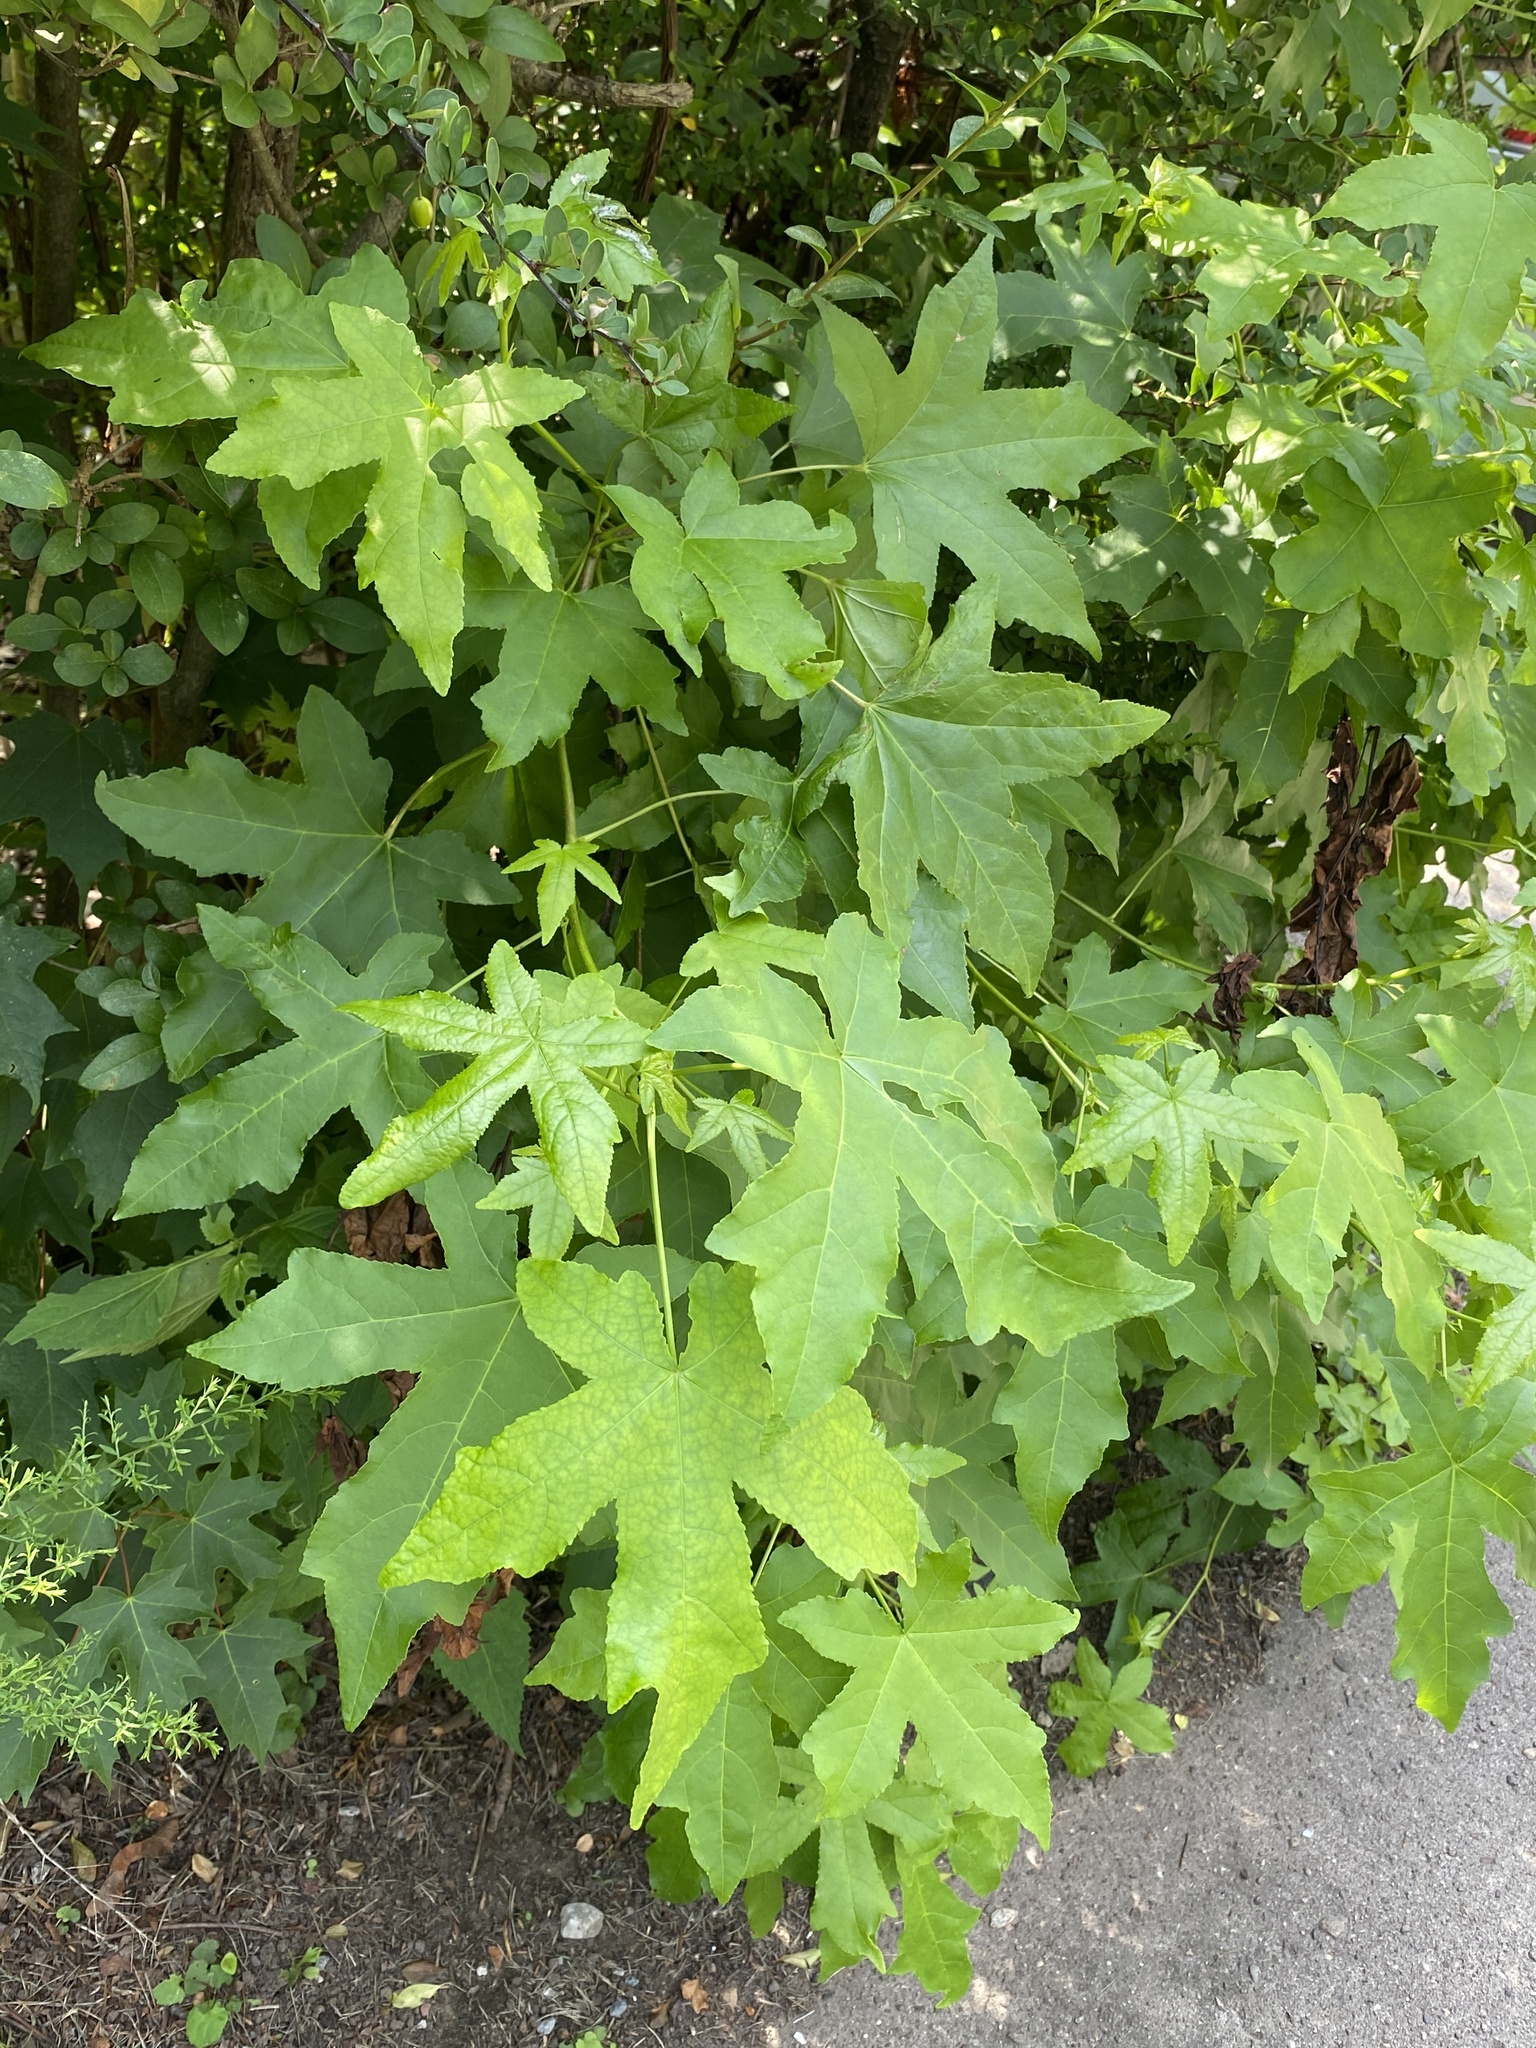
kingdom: Plantae
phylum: Tracheophyta
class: Magnoliopsida
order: Saxifragales
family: Altingiaceae
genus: Liquidambar
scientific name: Liquidambar styraciflua
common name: Sweet gum
